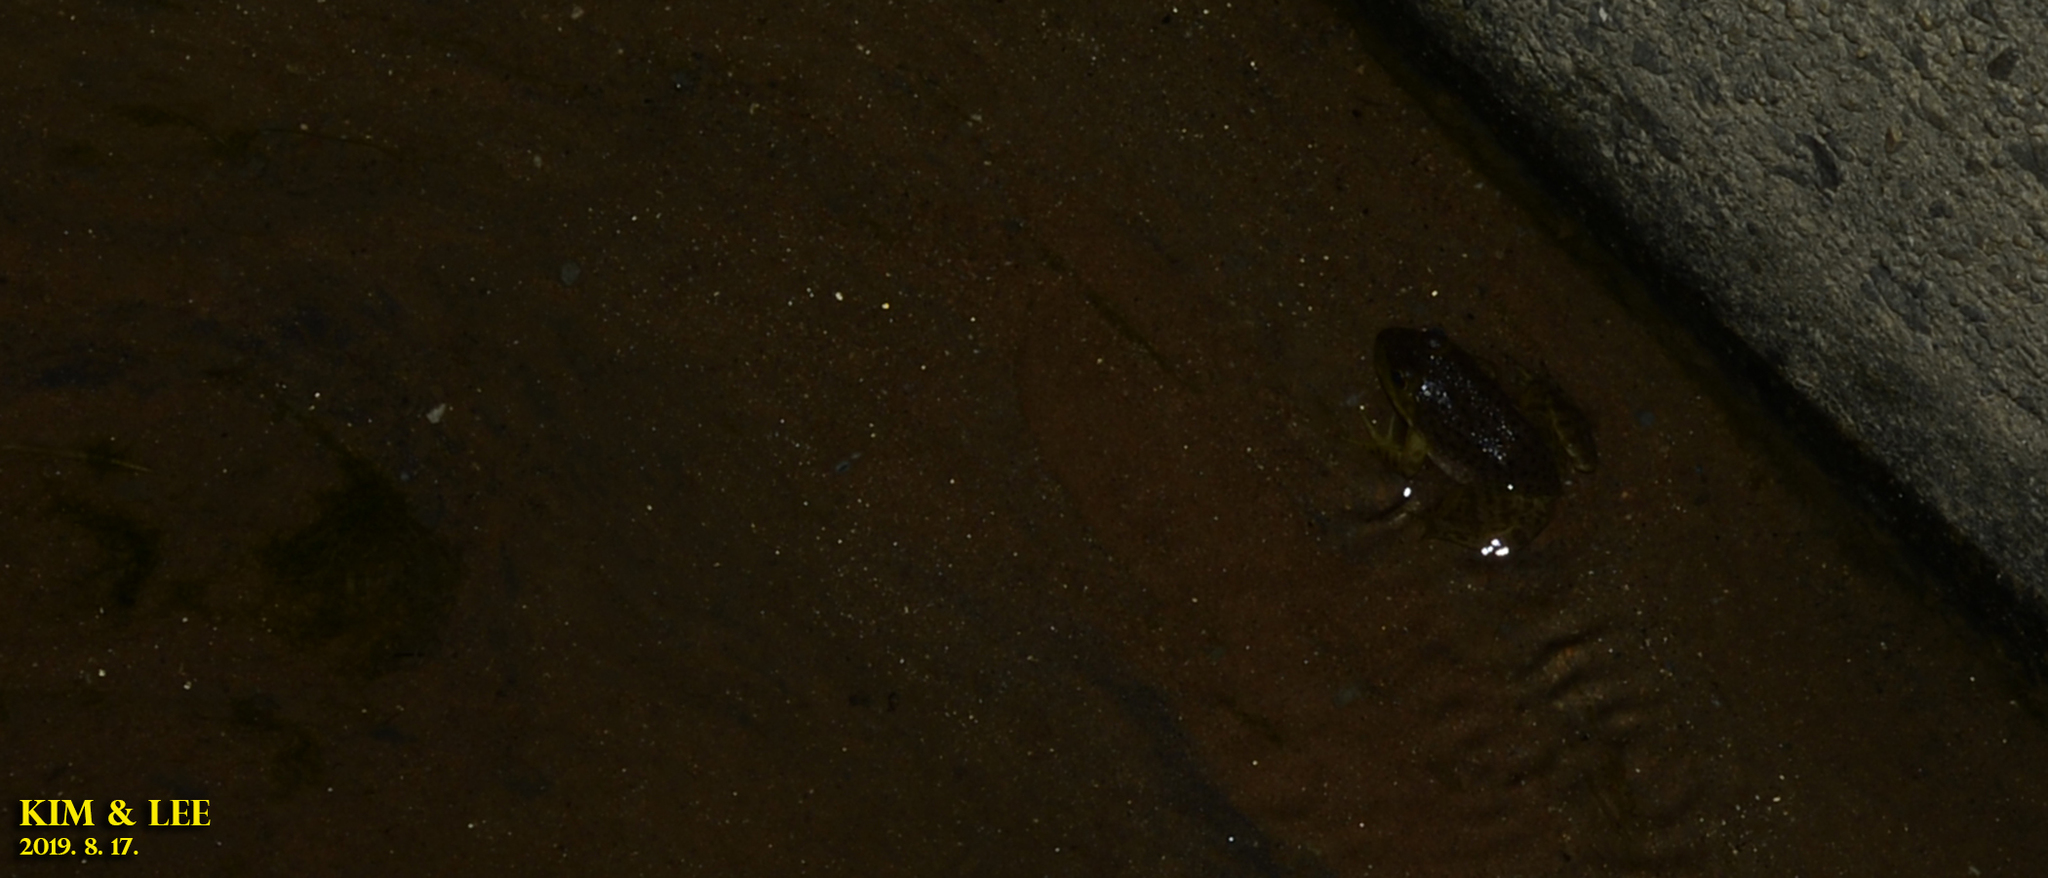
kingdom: Animalia
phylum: Chordata
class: Amphibia
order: Anura
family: Ranidae
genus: Lithobates
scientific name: Lithobates catesbeianus
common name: American bullfrog
